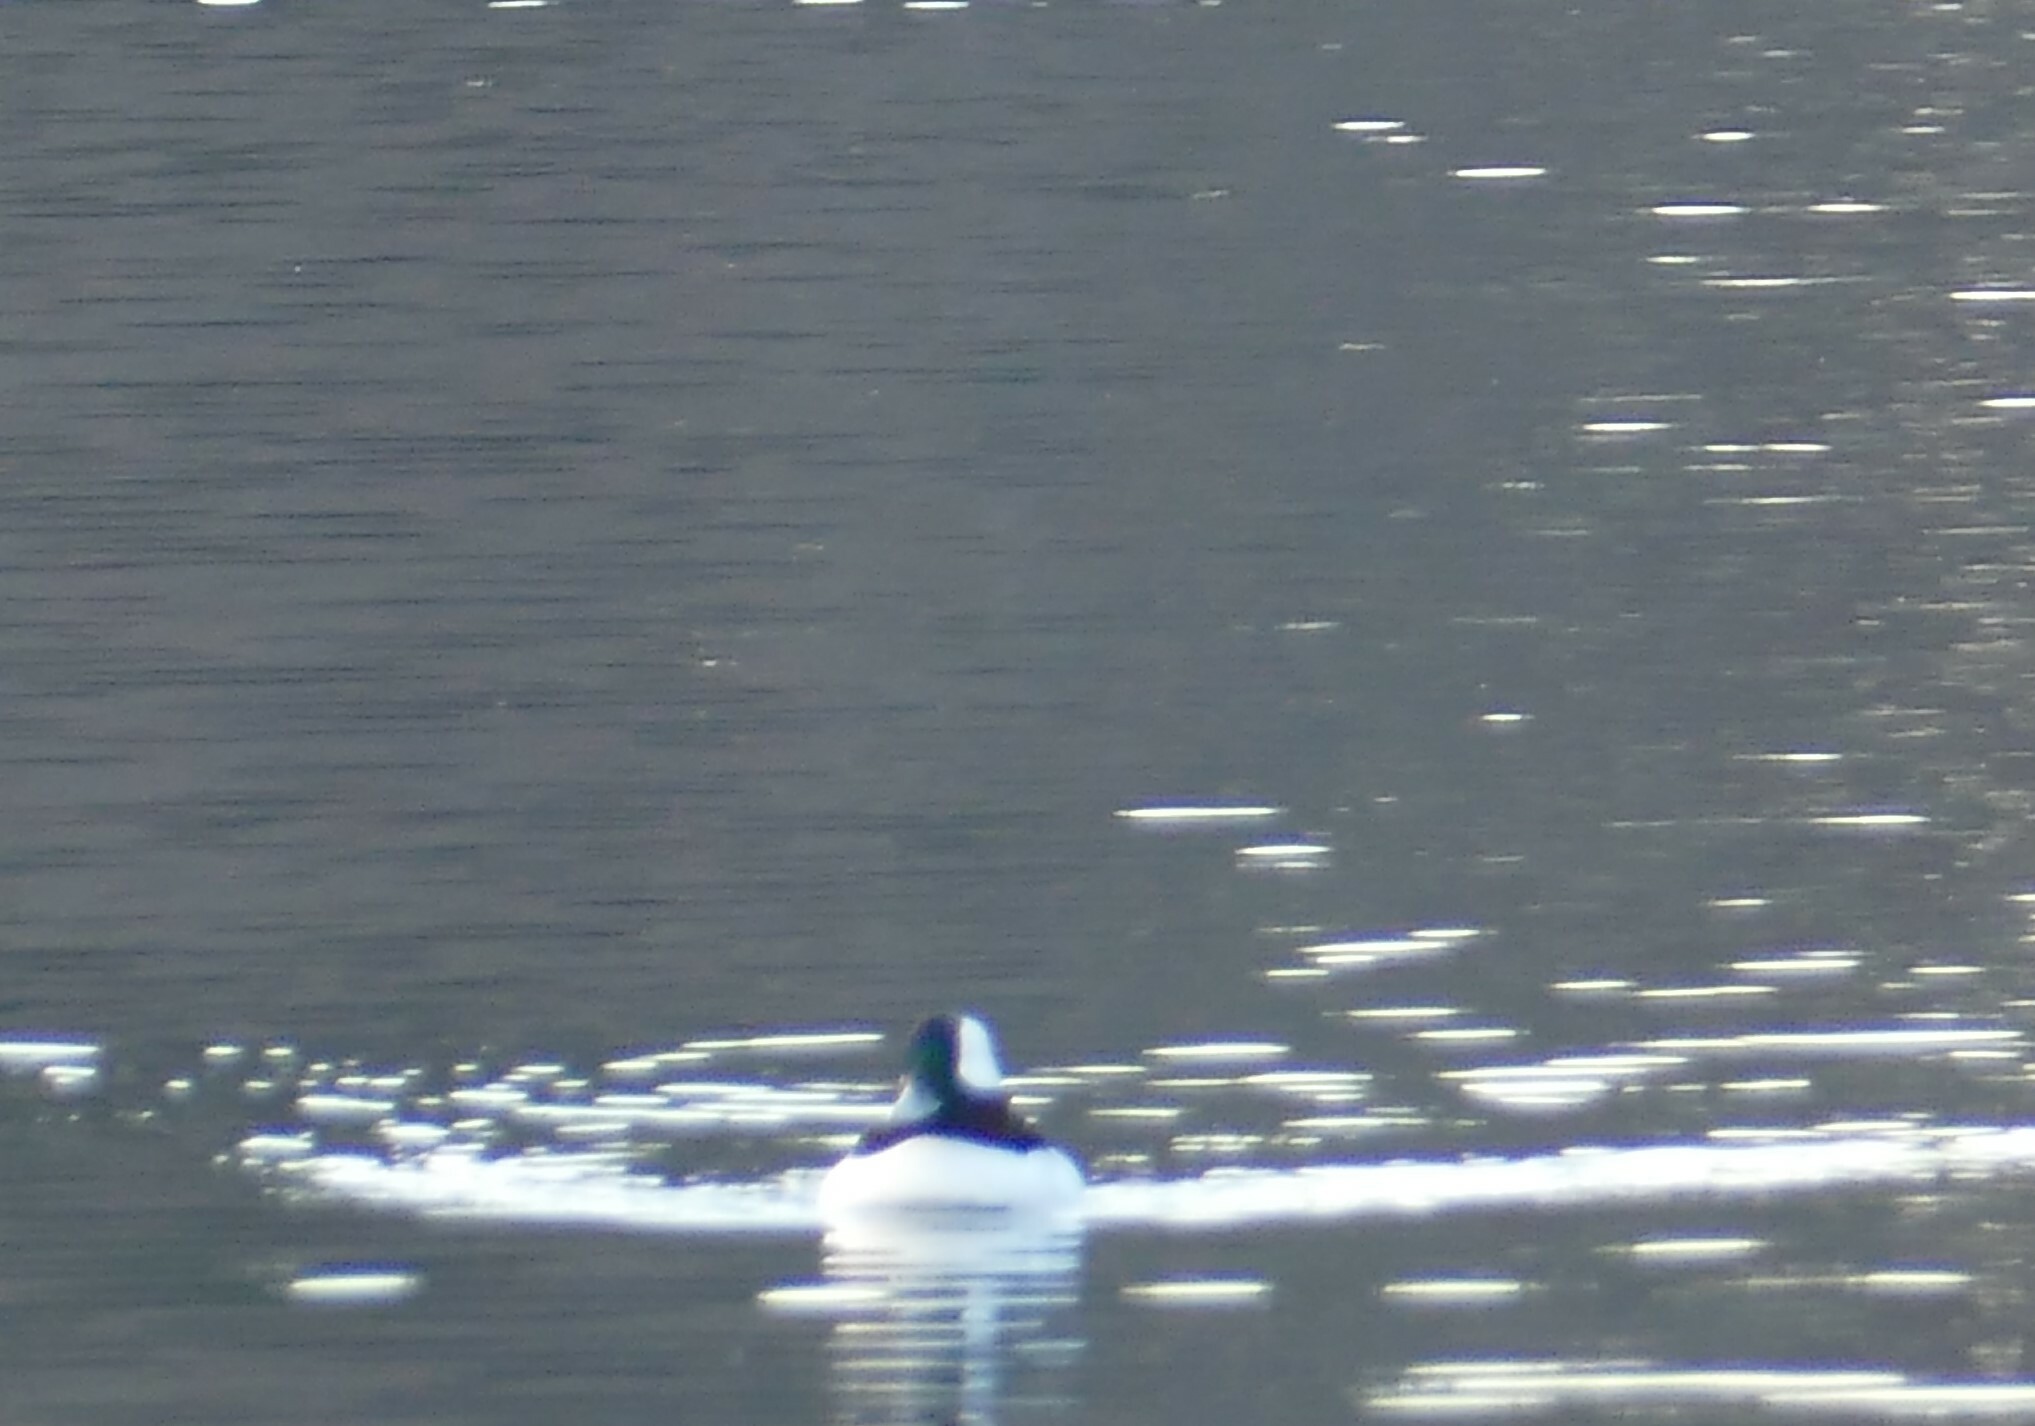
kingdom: Animalia
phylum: Chordata
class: Aves
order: Anseriformes
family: Anatidae
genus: Bucephala
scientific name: Bucephala albeola
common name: Bufflehead
